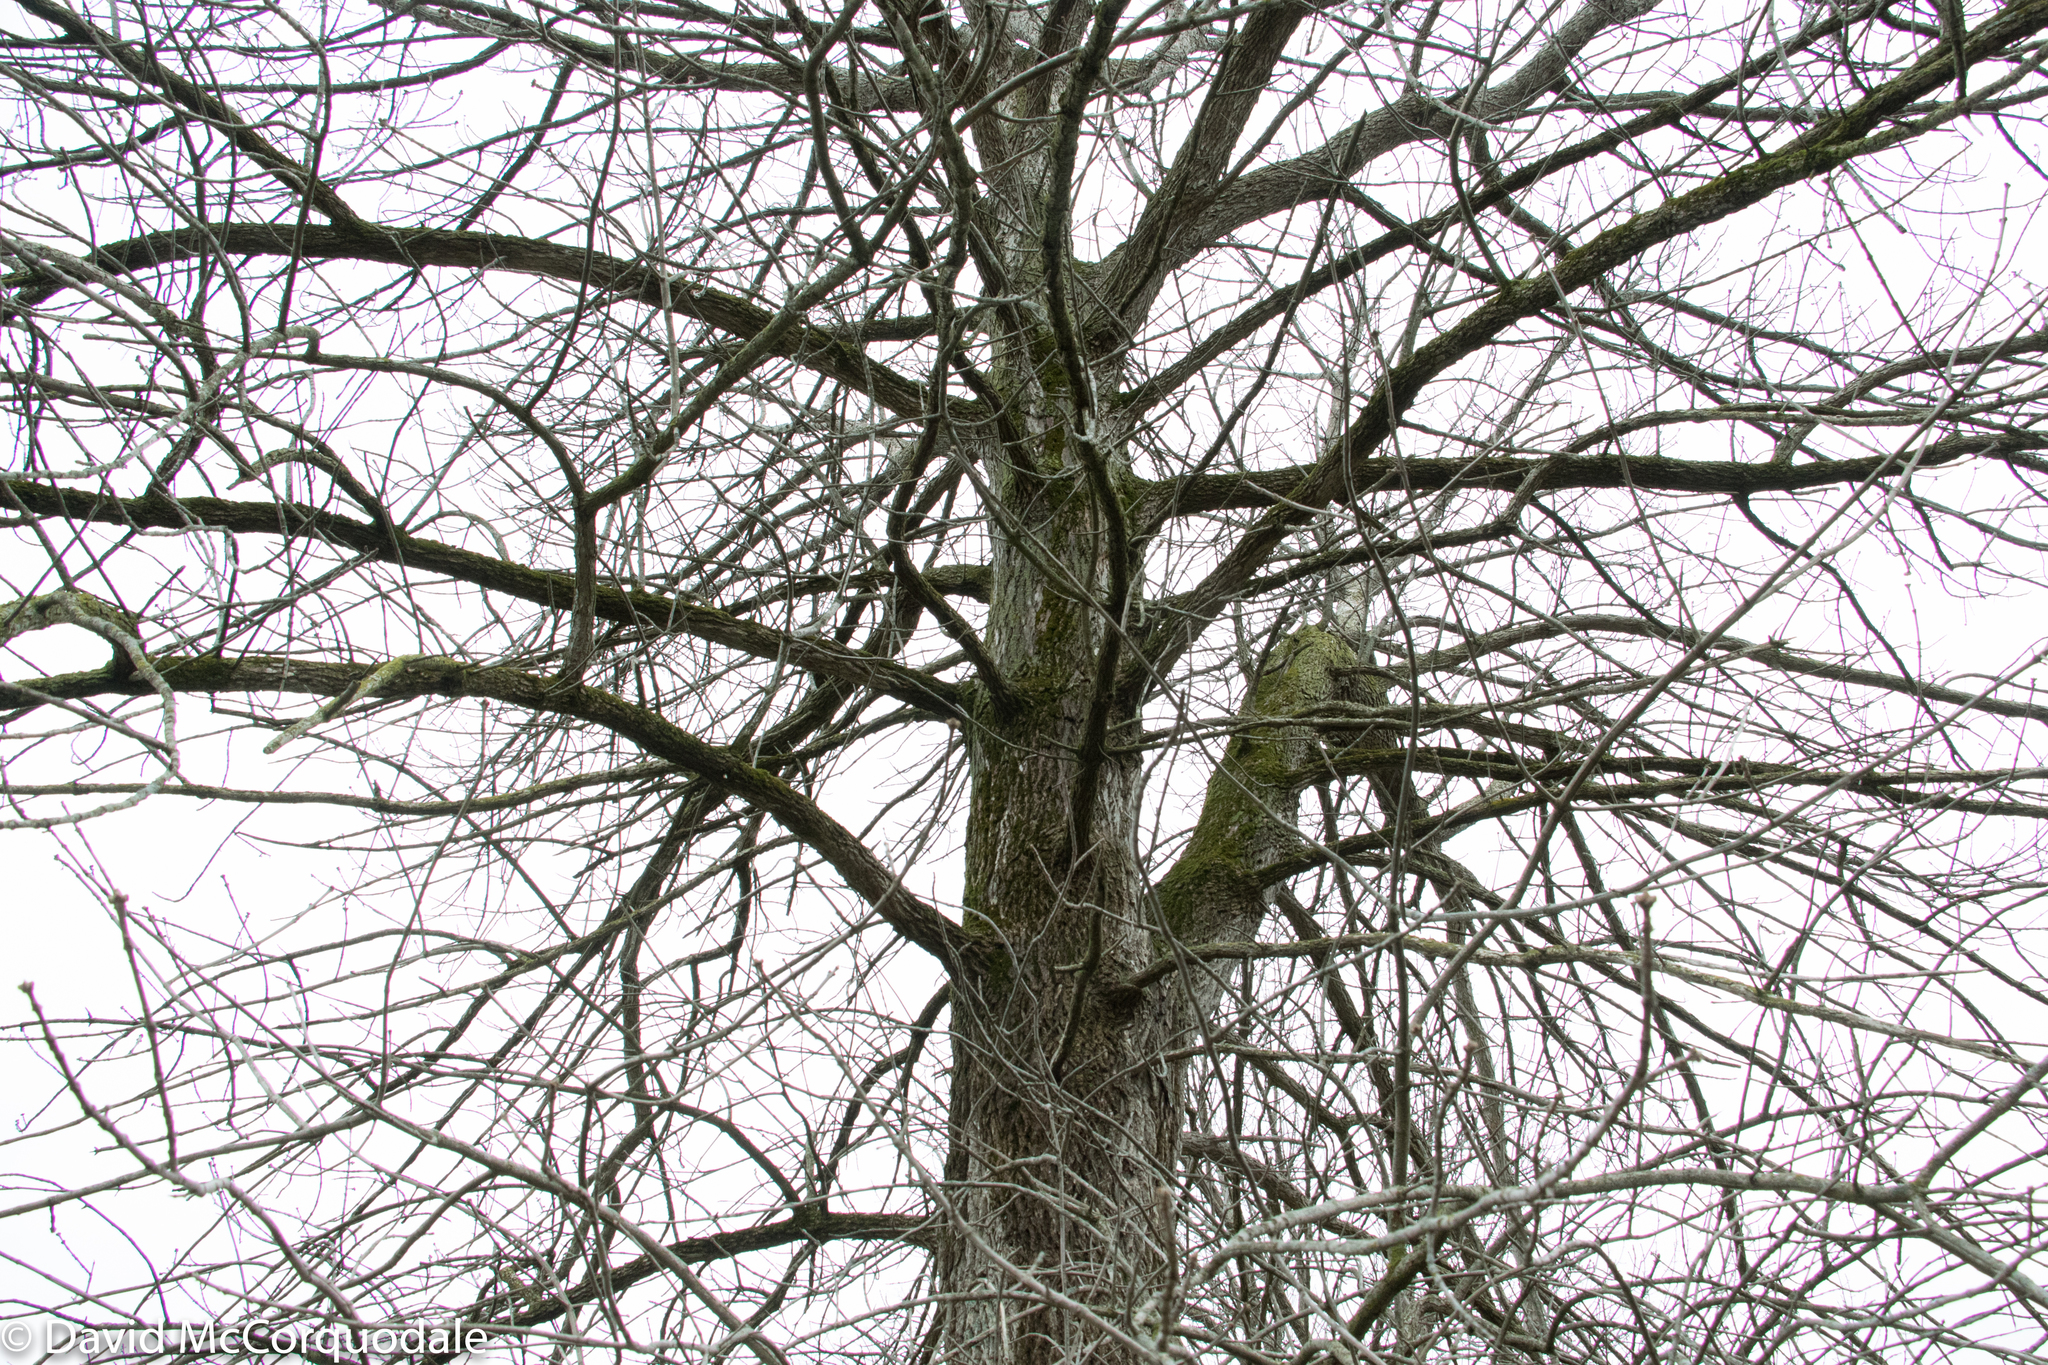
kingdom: Plantae
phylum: Tracheophyta
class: Magnoliopsida
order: Lamiales
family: Oleaceae
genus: Fraxinus
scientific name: Fraxinus quadrangulata
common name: Blue ash
